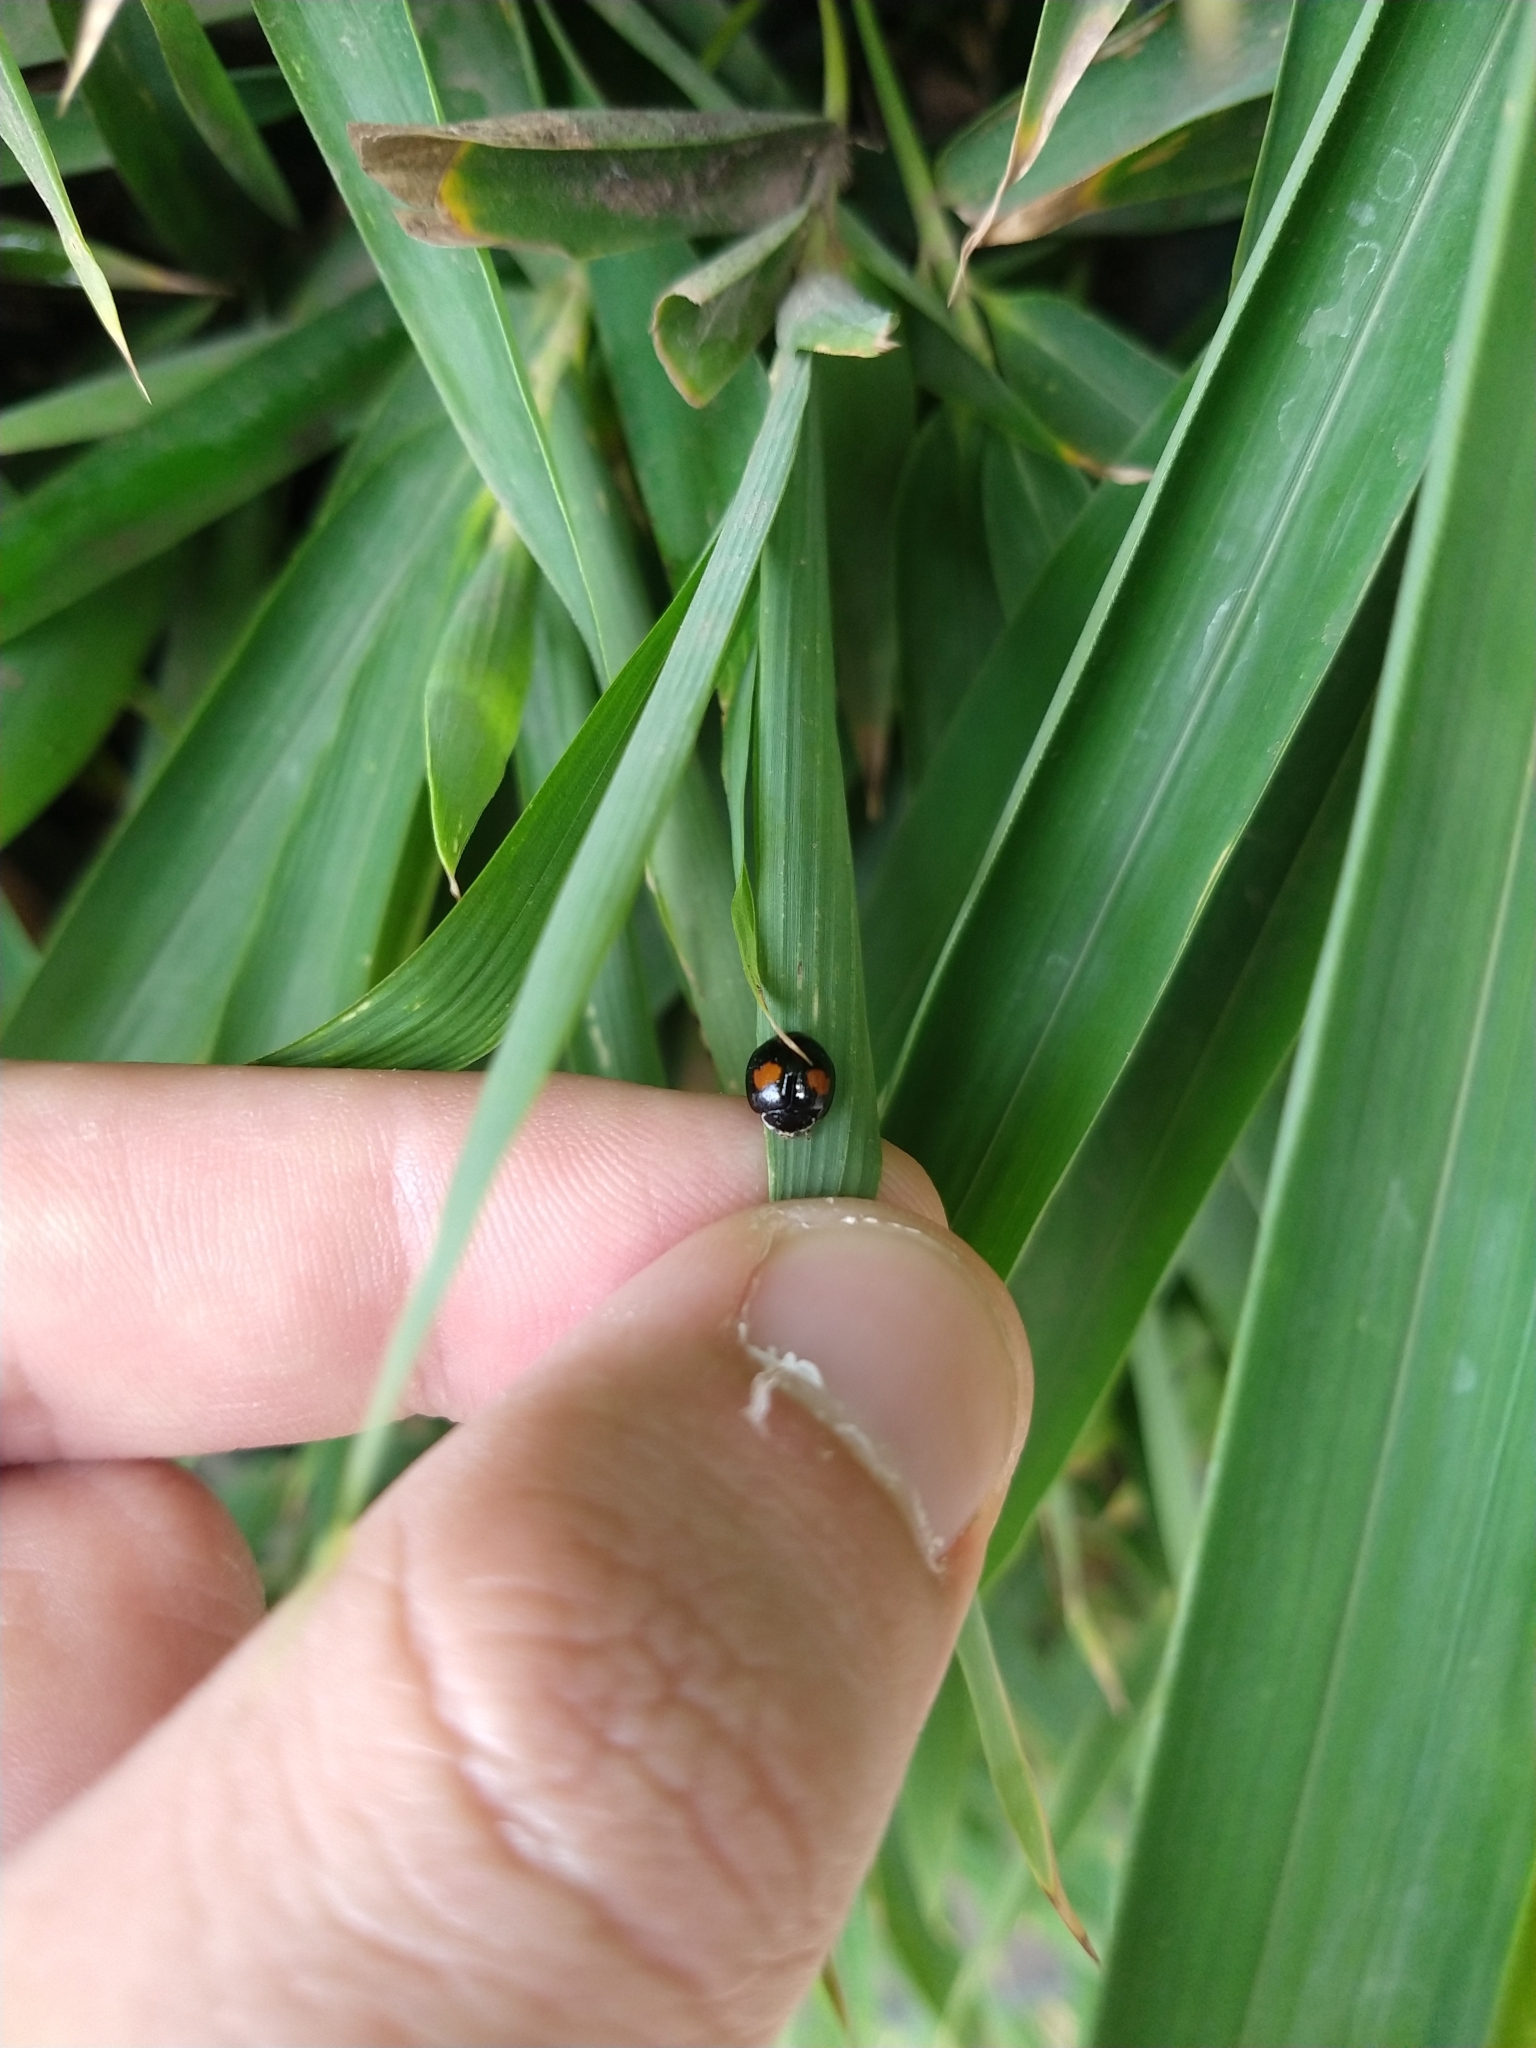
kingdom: Animalia
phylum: Arthropoda
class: Insecta
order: Coleoptera
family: Coccinellidae
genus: Olla
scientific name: Olla v-nigrum
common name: Ashy gray lady beetle
